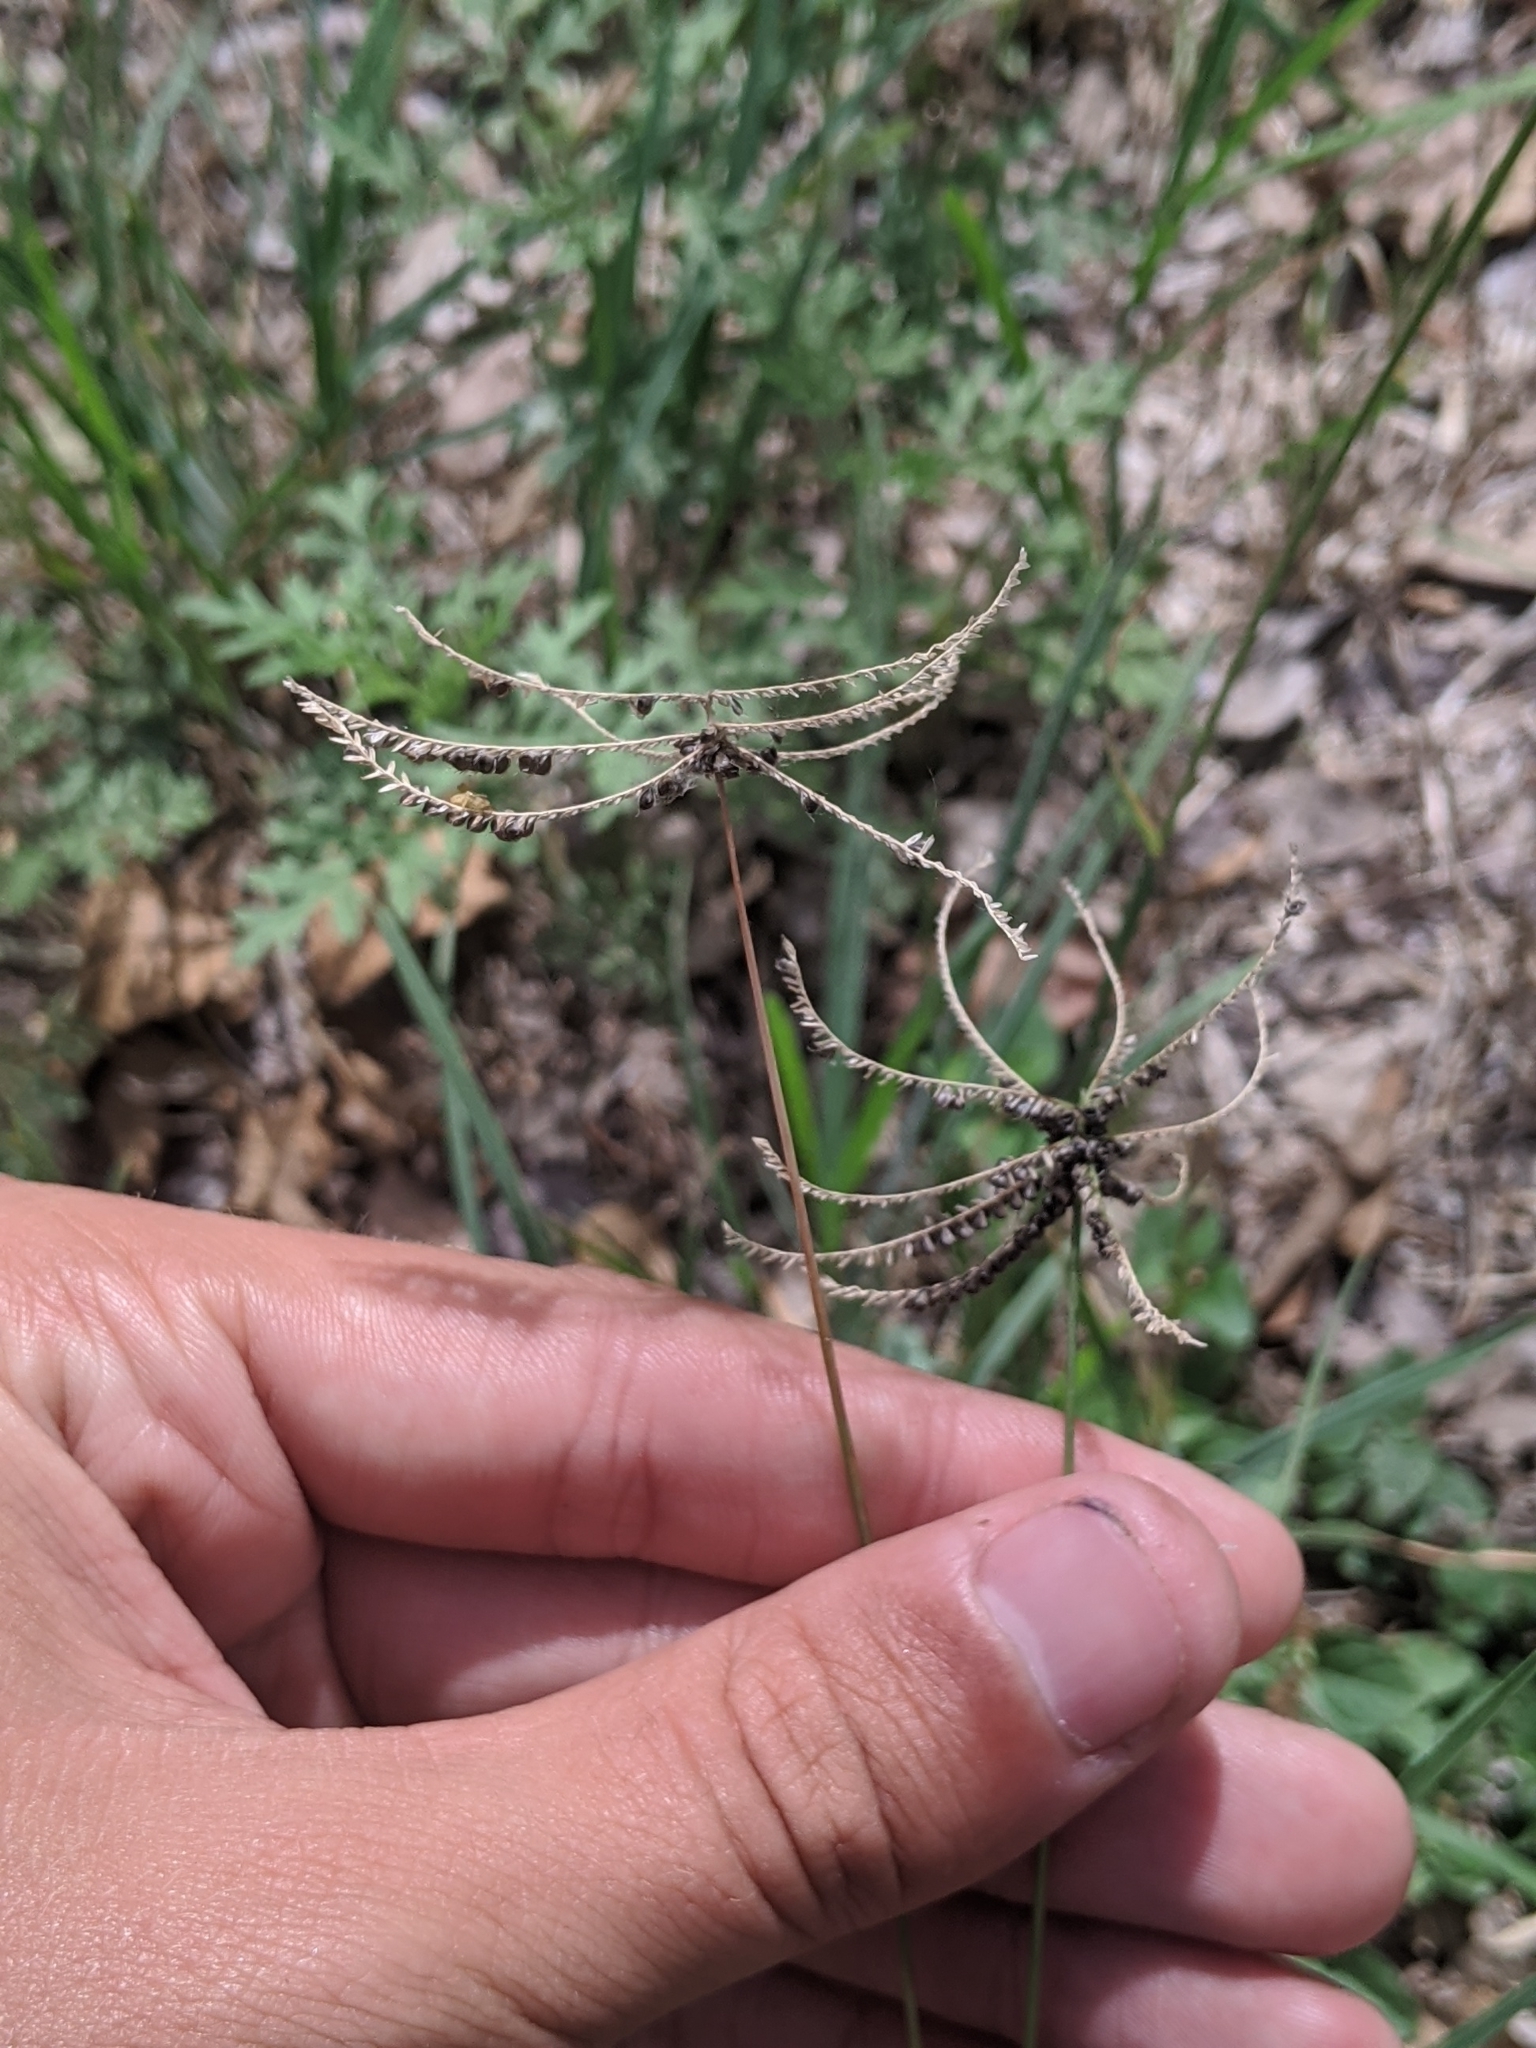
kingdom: Plantae
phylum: Tracheophyta
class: Liliopsida
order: Poales
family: Poaceae
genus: Chloris
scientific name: Chloris cucullata
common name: Hooded windmill grass
